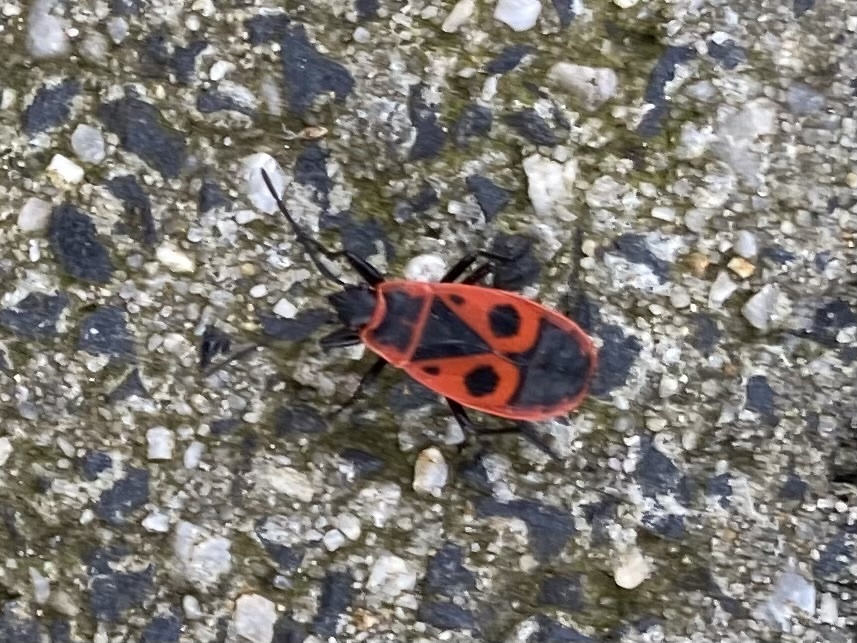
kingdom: Animalia
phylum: Arthropoda
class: Insecta
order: Hemiptera
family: Pyrrhocoridae
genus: Pyrrhocoris
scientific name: Pyrrhocoris apterus
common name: Firebug
